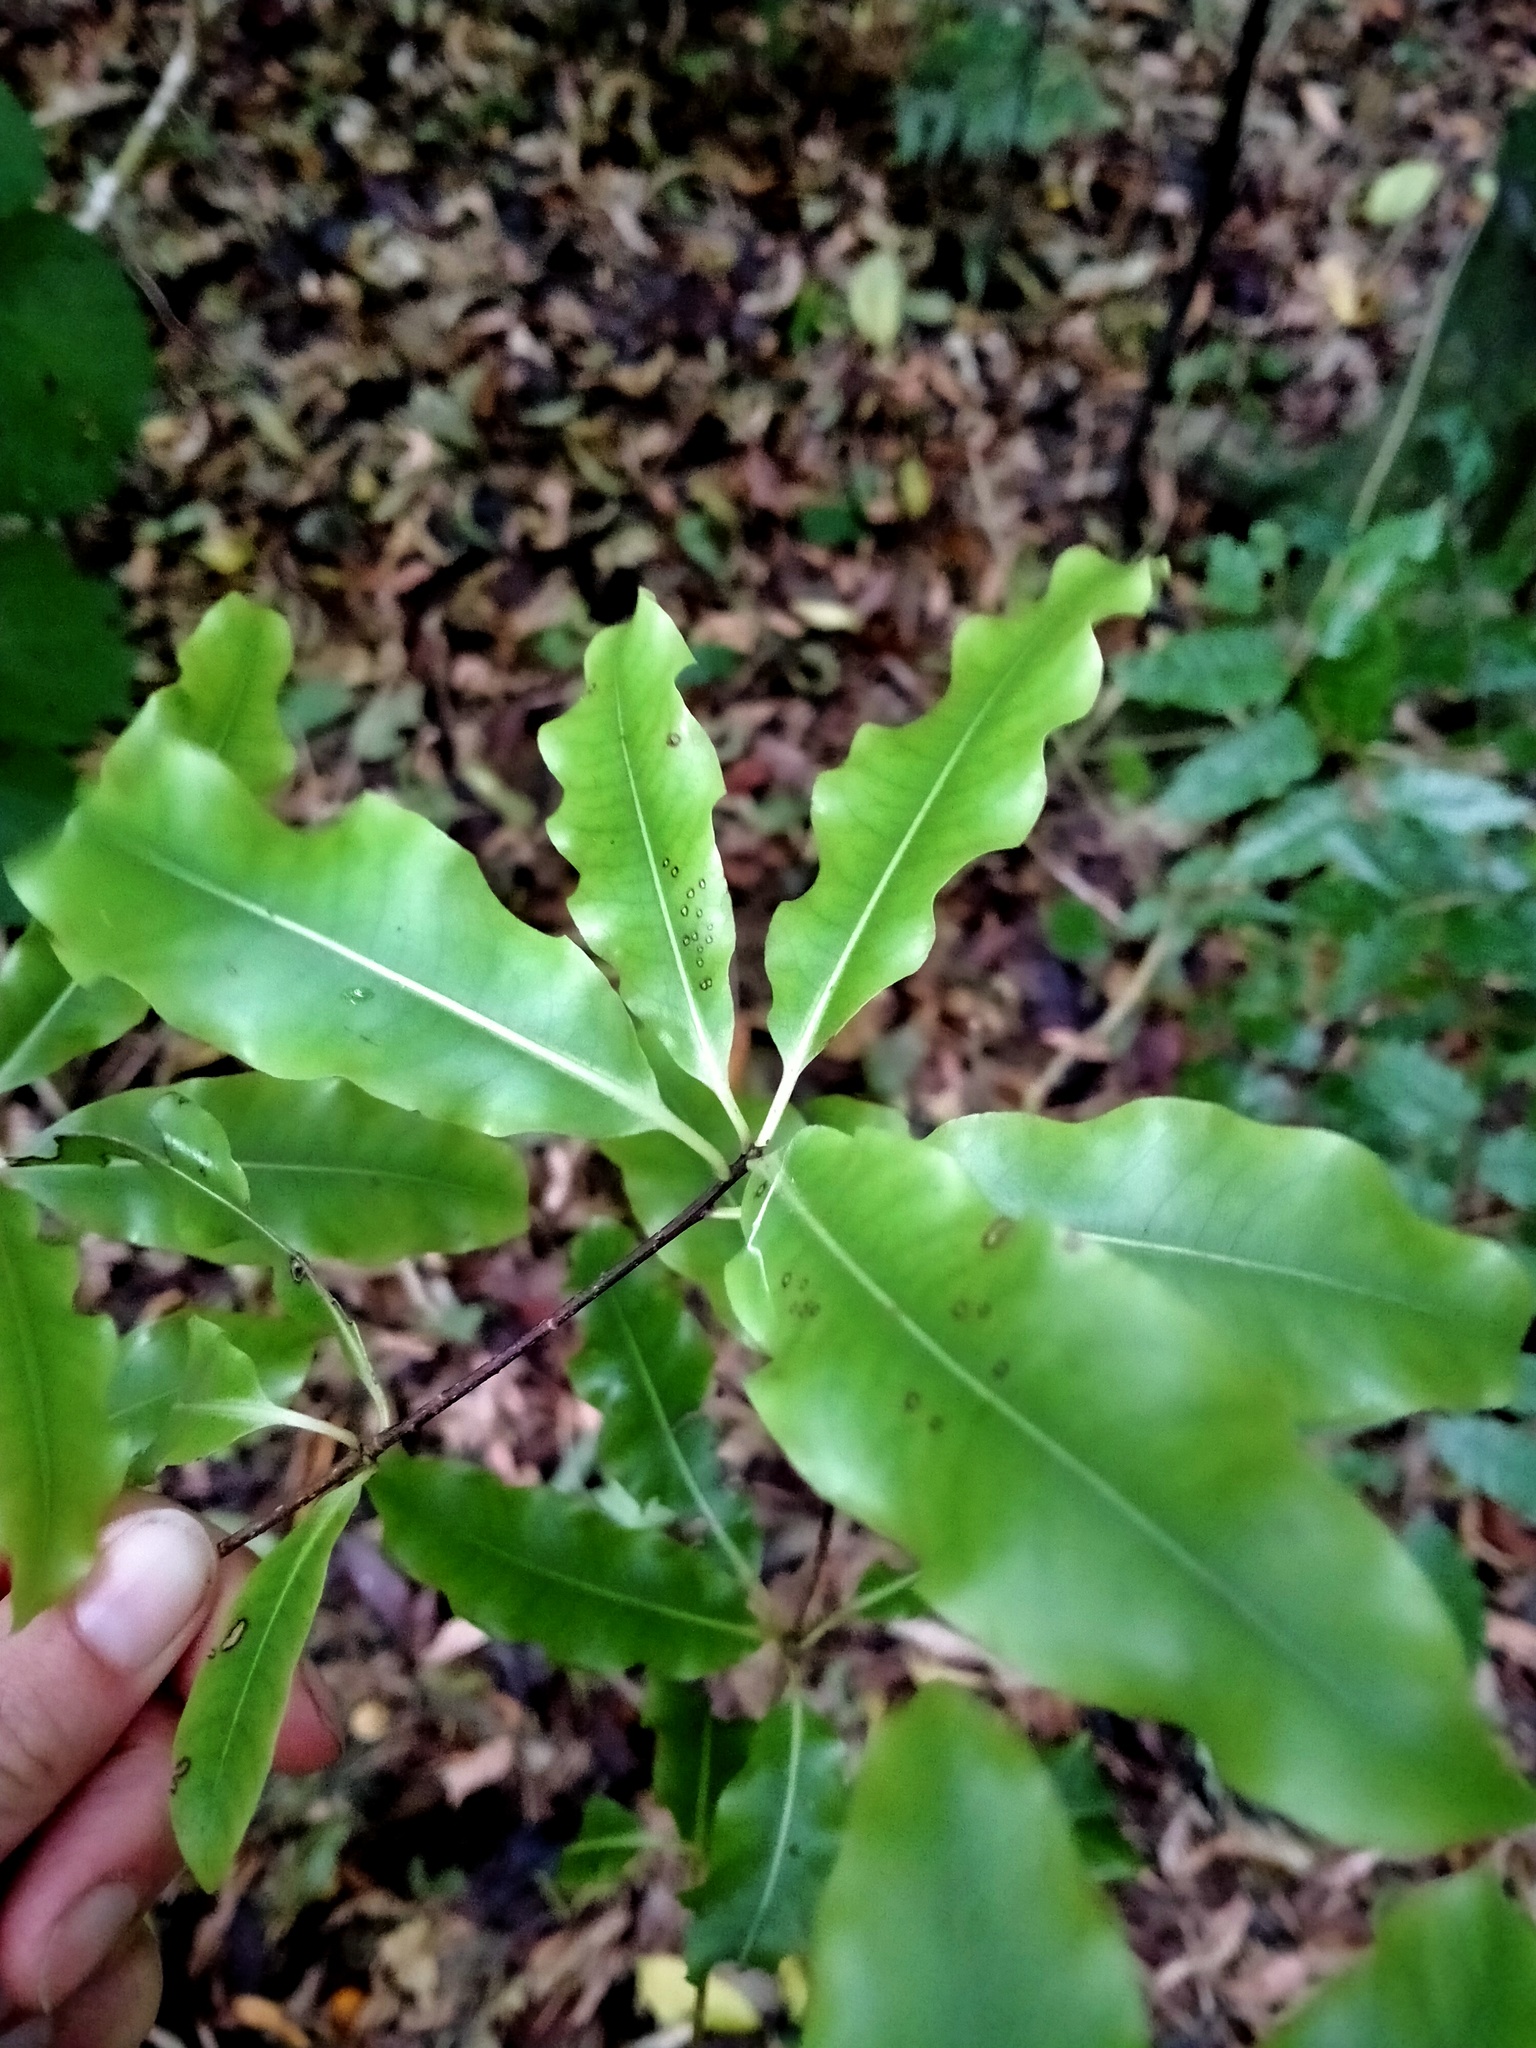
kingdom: Plantae
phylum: Tracheophyta
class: Magnoliopsida
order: Apiales
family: Pittosporaceae
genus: Pittosporum
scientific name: Pittosporum eugenioides
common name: Lemonwood
